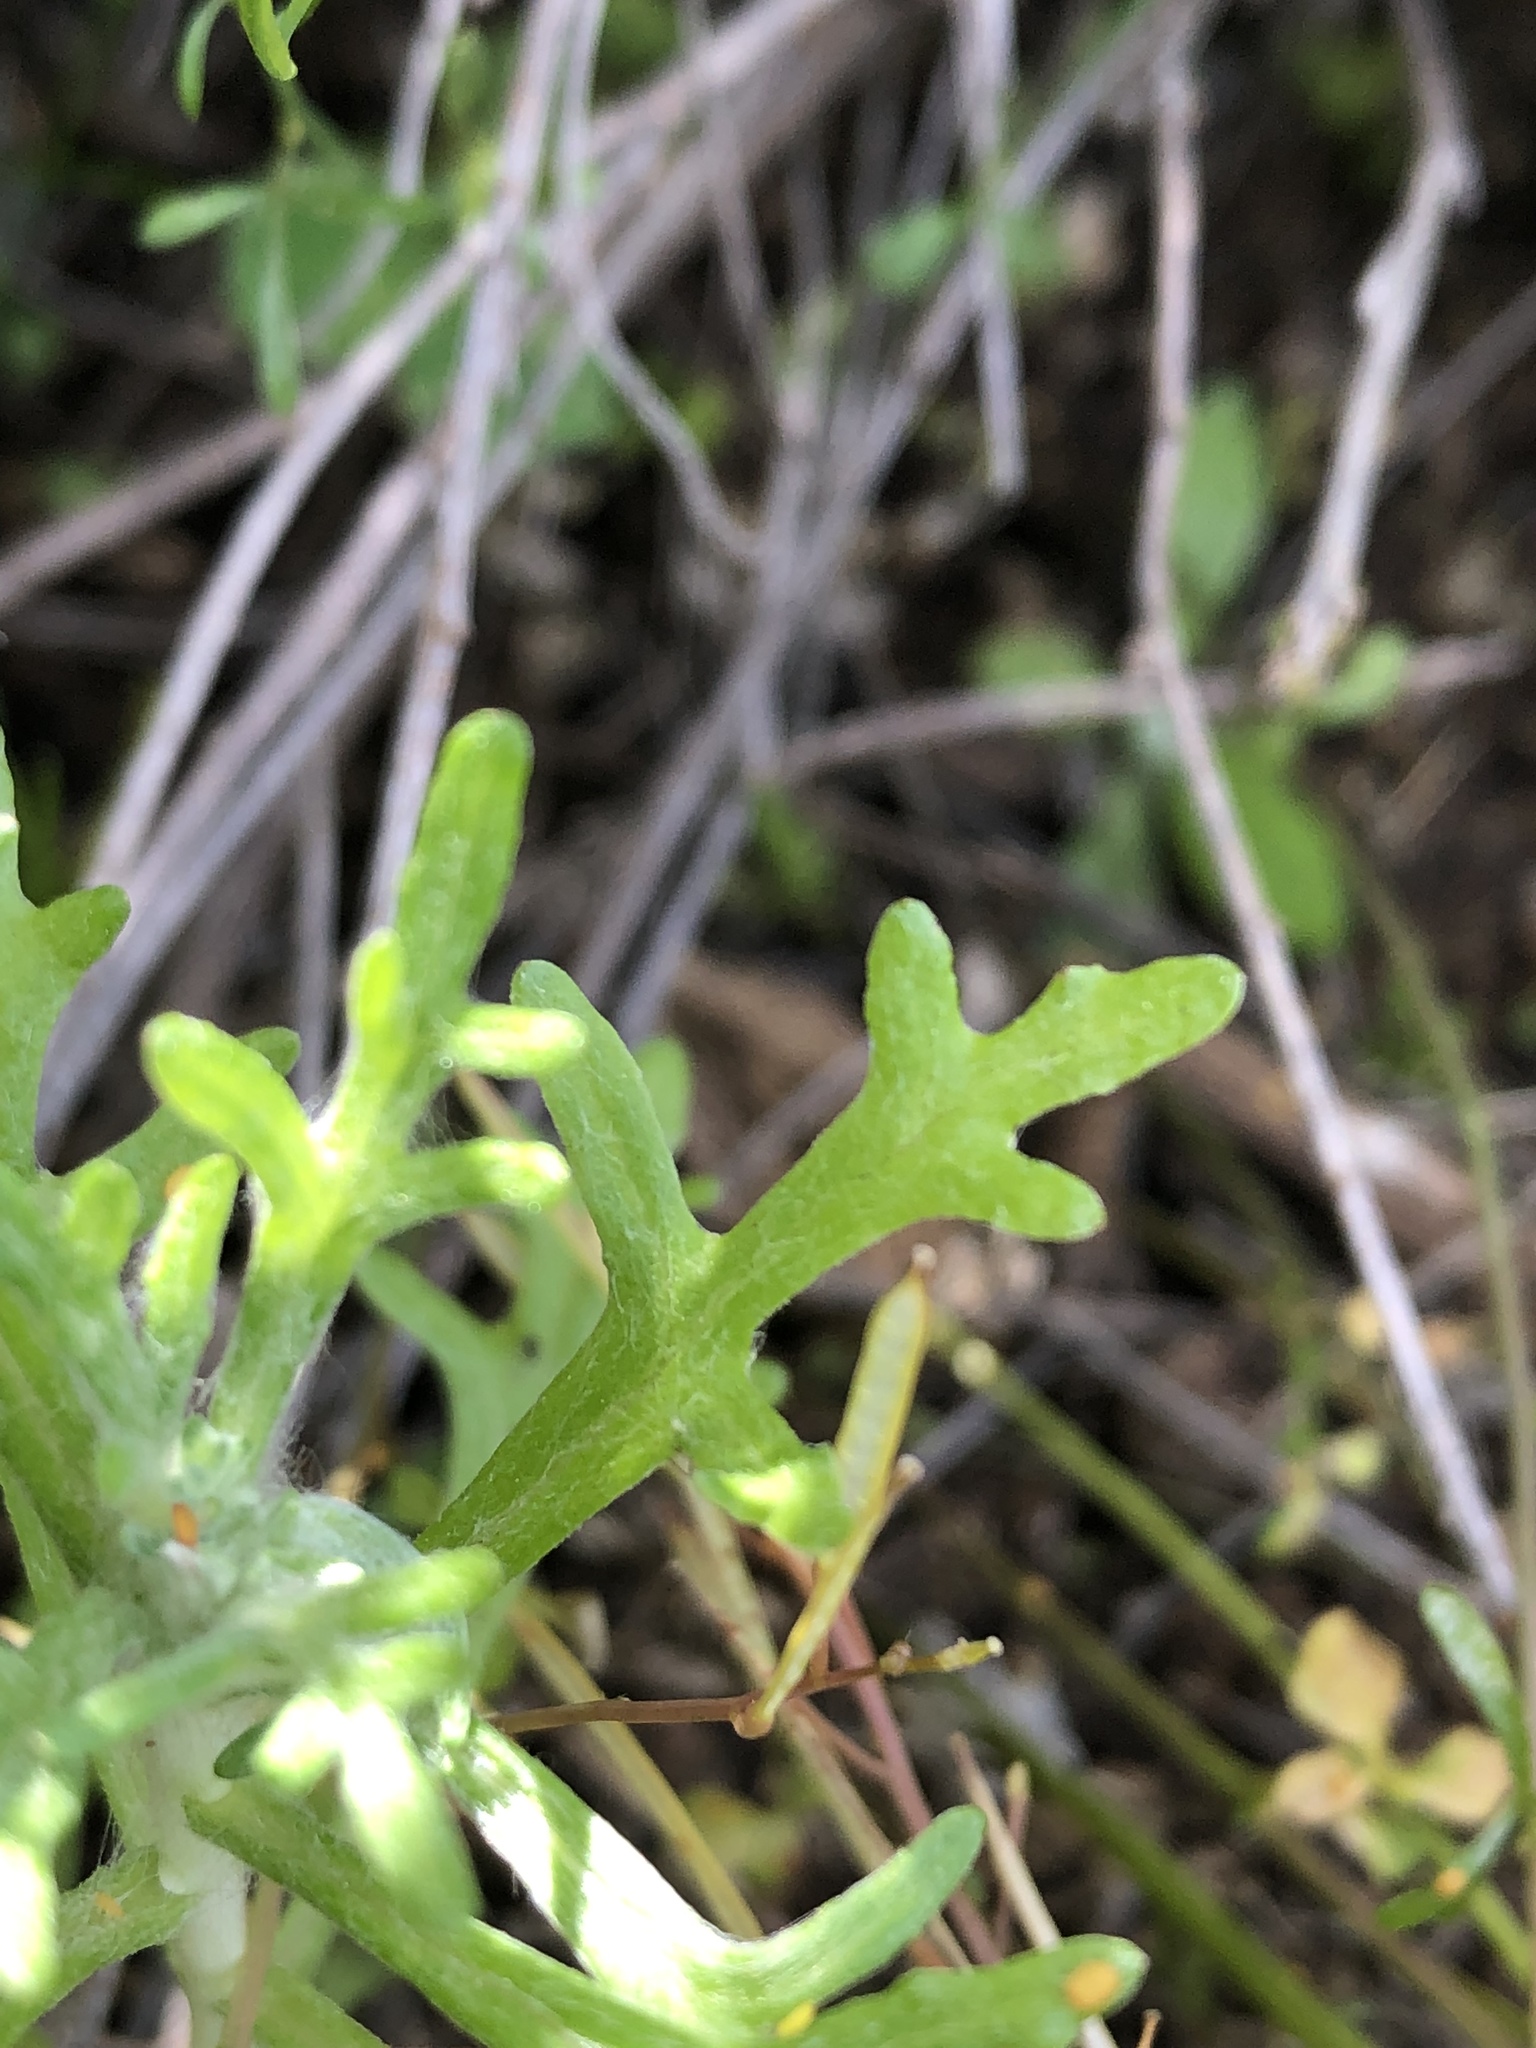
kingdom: Plantae
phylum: Tracheophyta
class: Magnoliopsida
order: Asterales
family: Asteraceae
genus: Eriophyllum
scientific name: Eriophyllum confertiflorum
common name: Golden-yarrow
